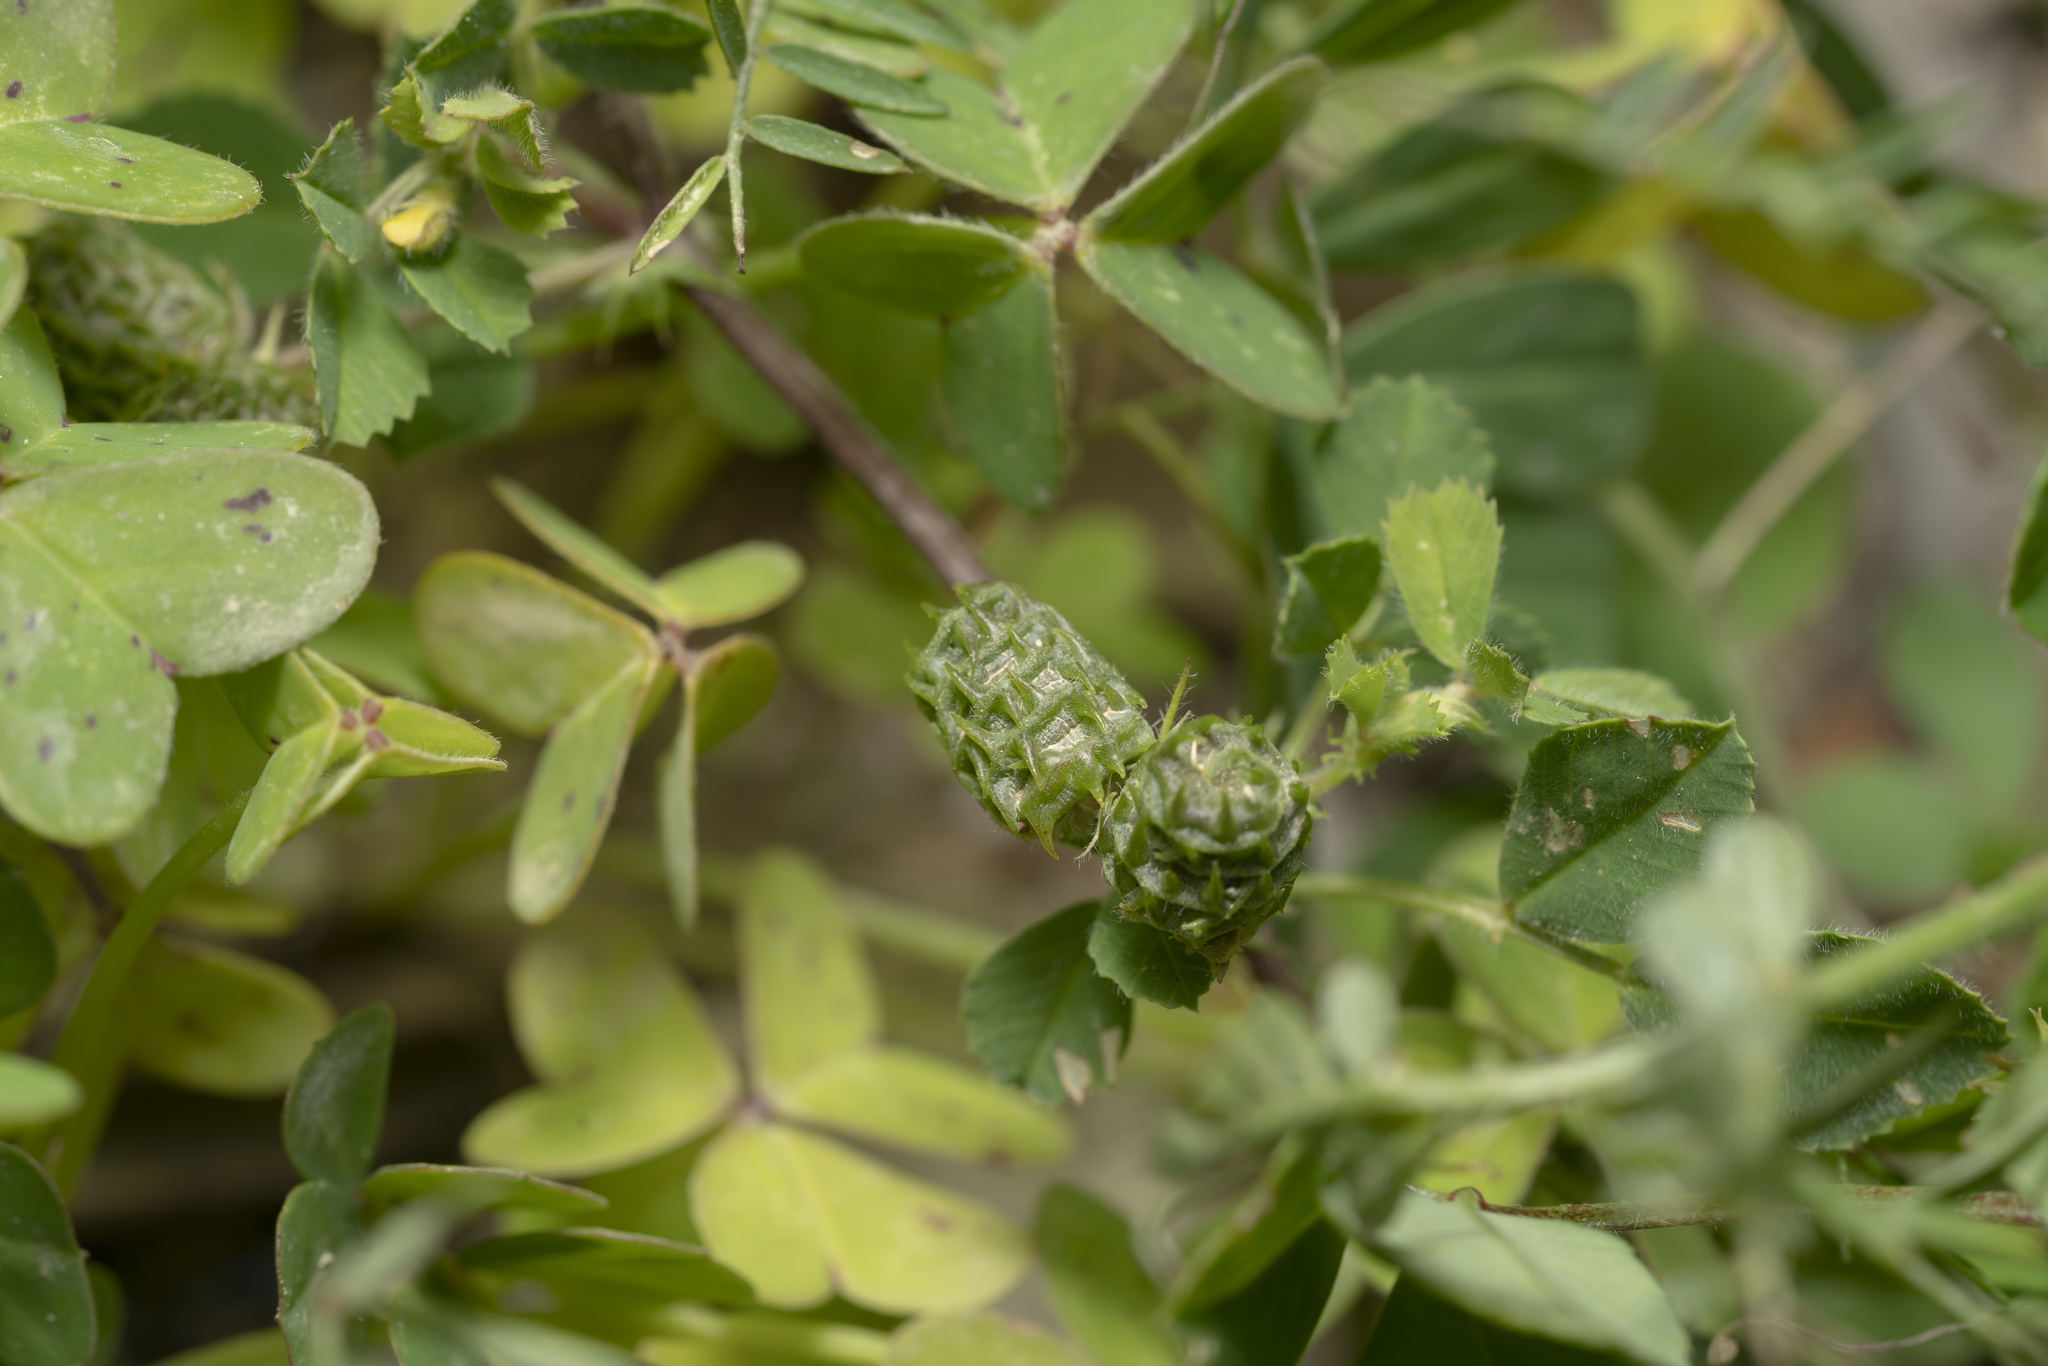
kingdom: Plantae
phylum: Tracheophyta
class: Magnoliopsida
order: Fabales
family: Fabaceae
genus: Medicago
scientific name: Medicago truncatula
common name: Strong-spined medick
